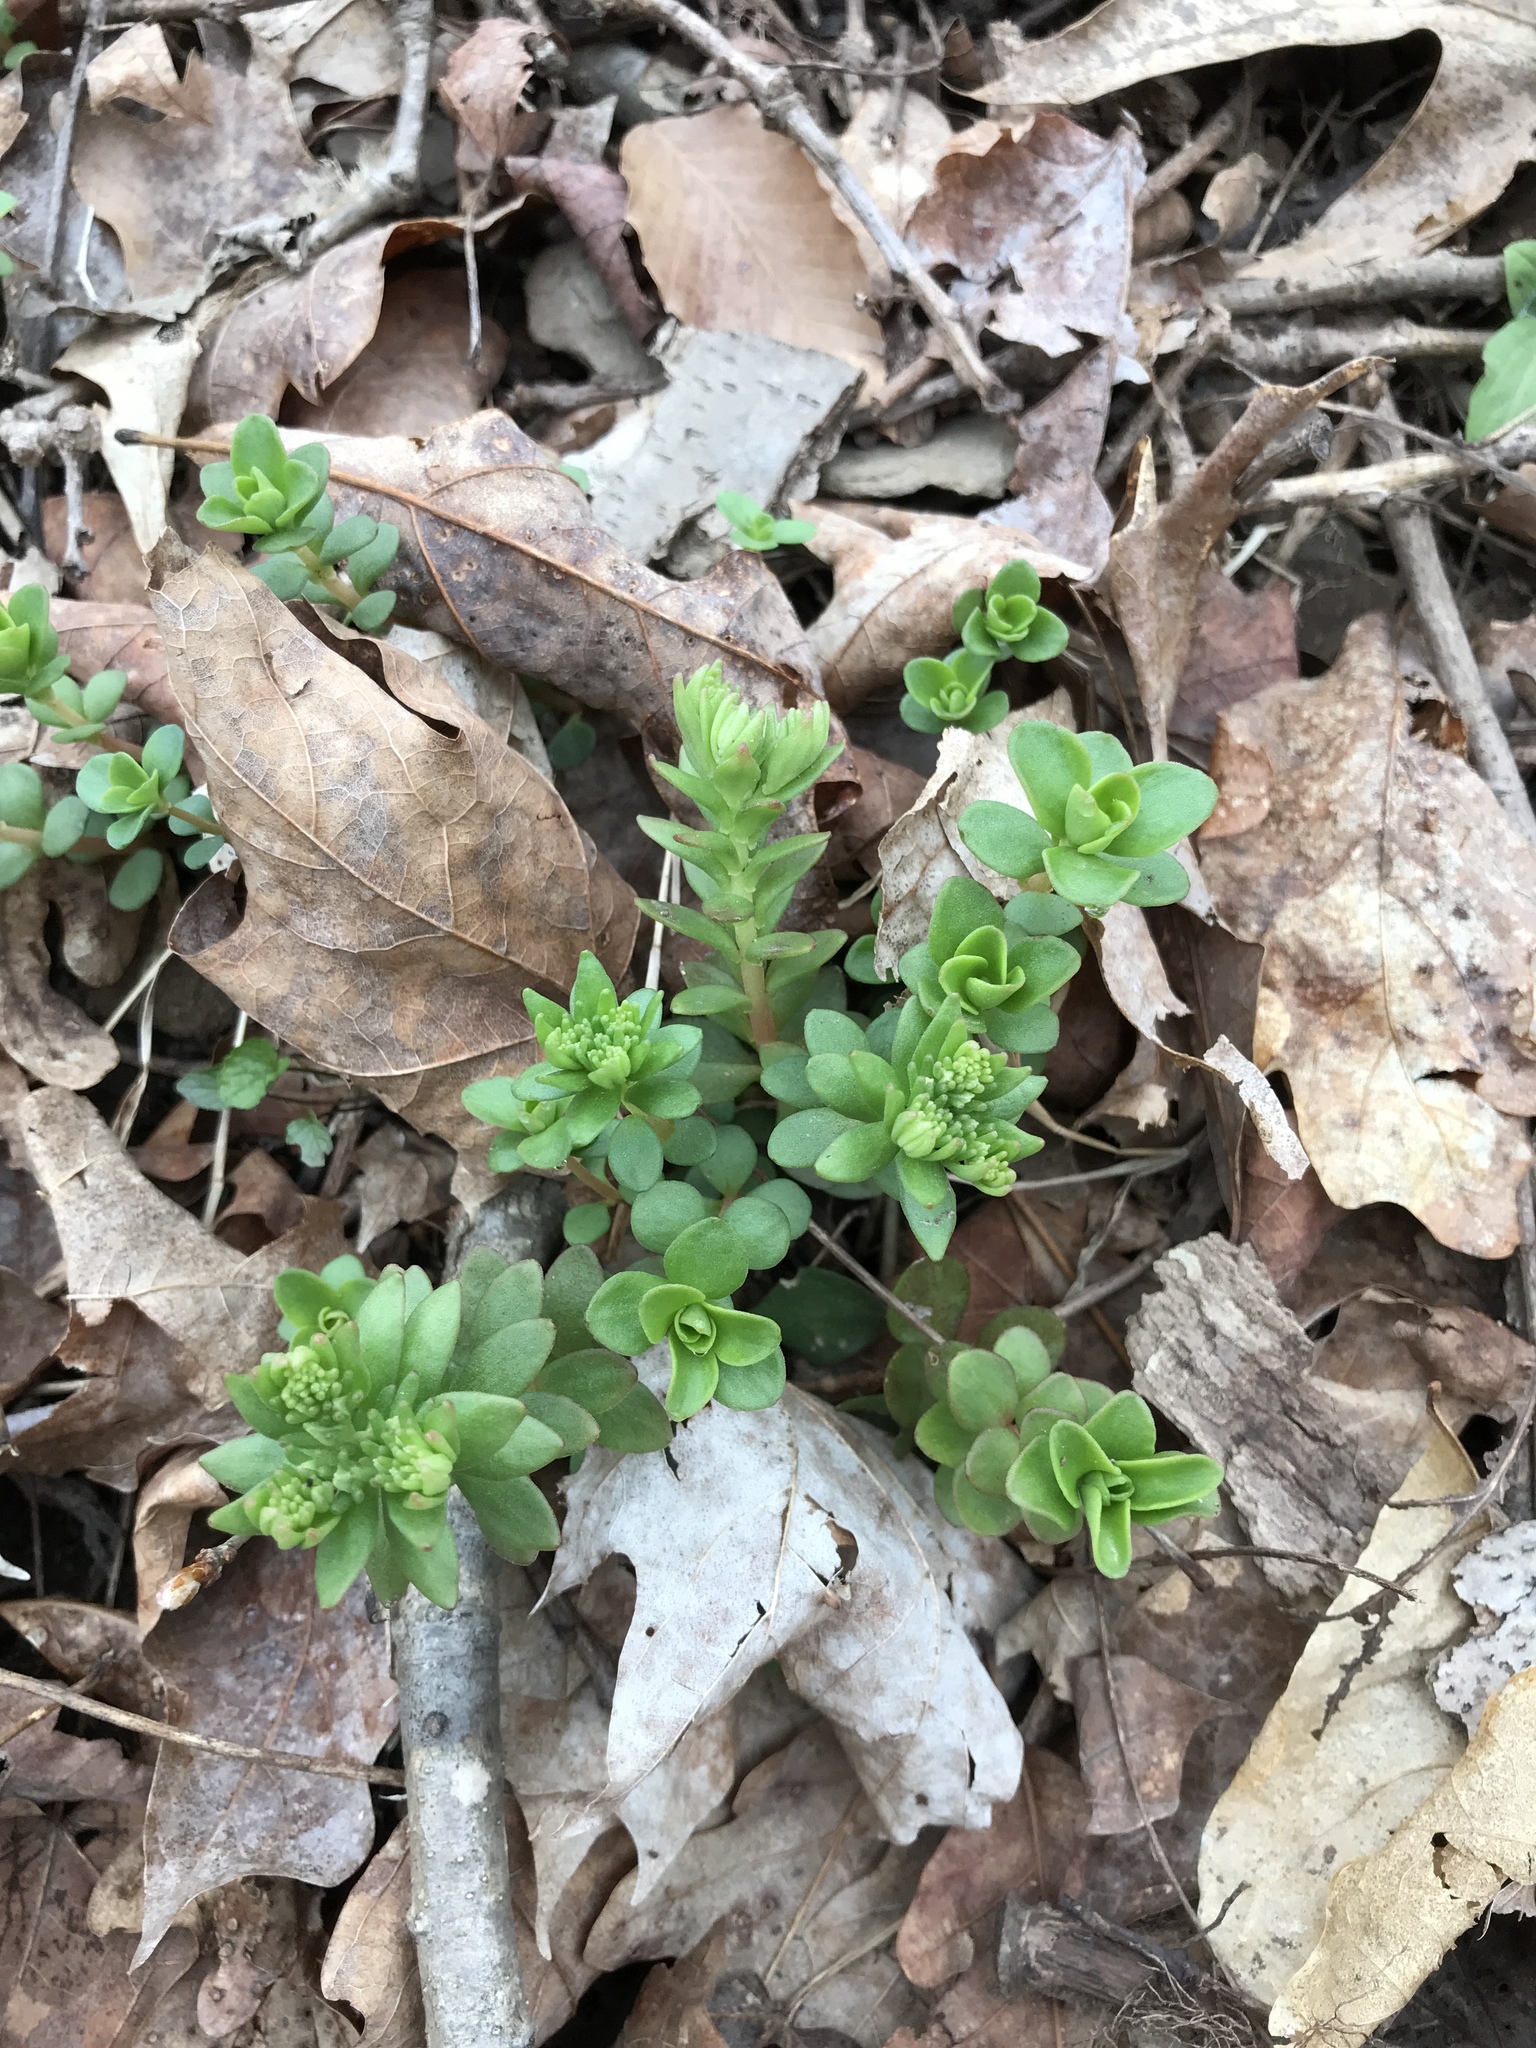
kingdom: Plantae
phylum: Tracheophyta
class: Magnoliopsida
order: Saxifragales
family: Crassulaceae
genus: Sedum
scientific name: Sedum ternatum
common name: Wild stonecrop
